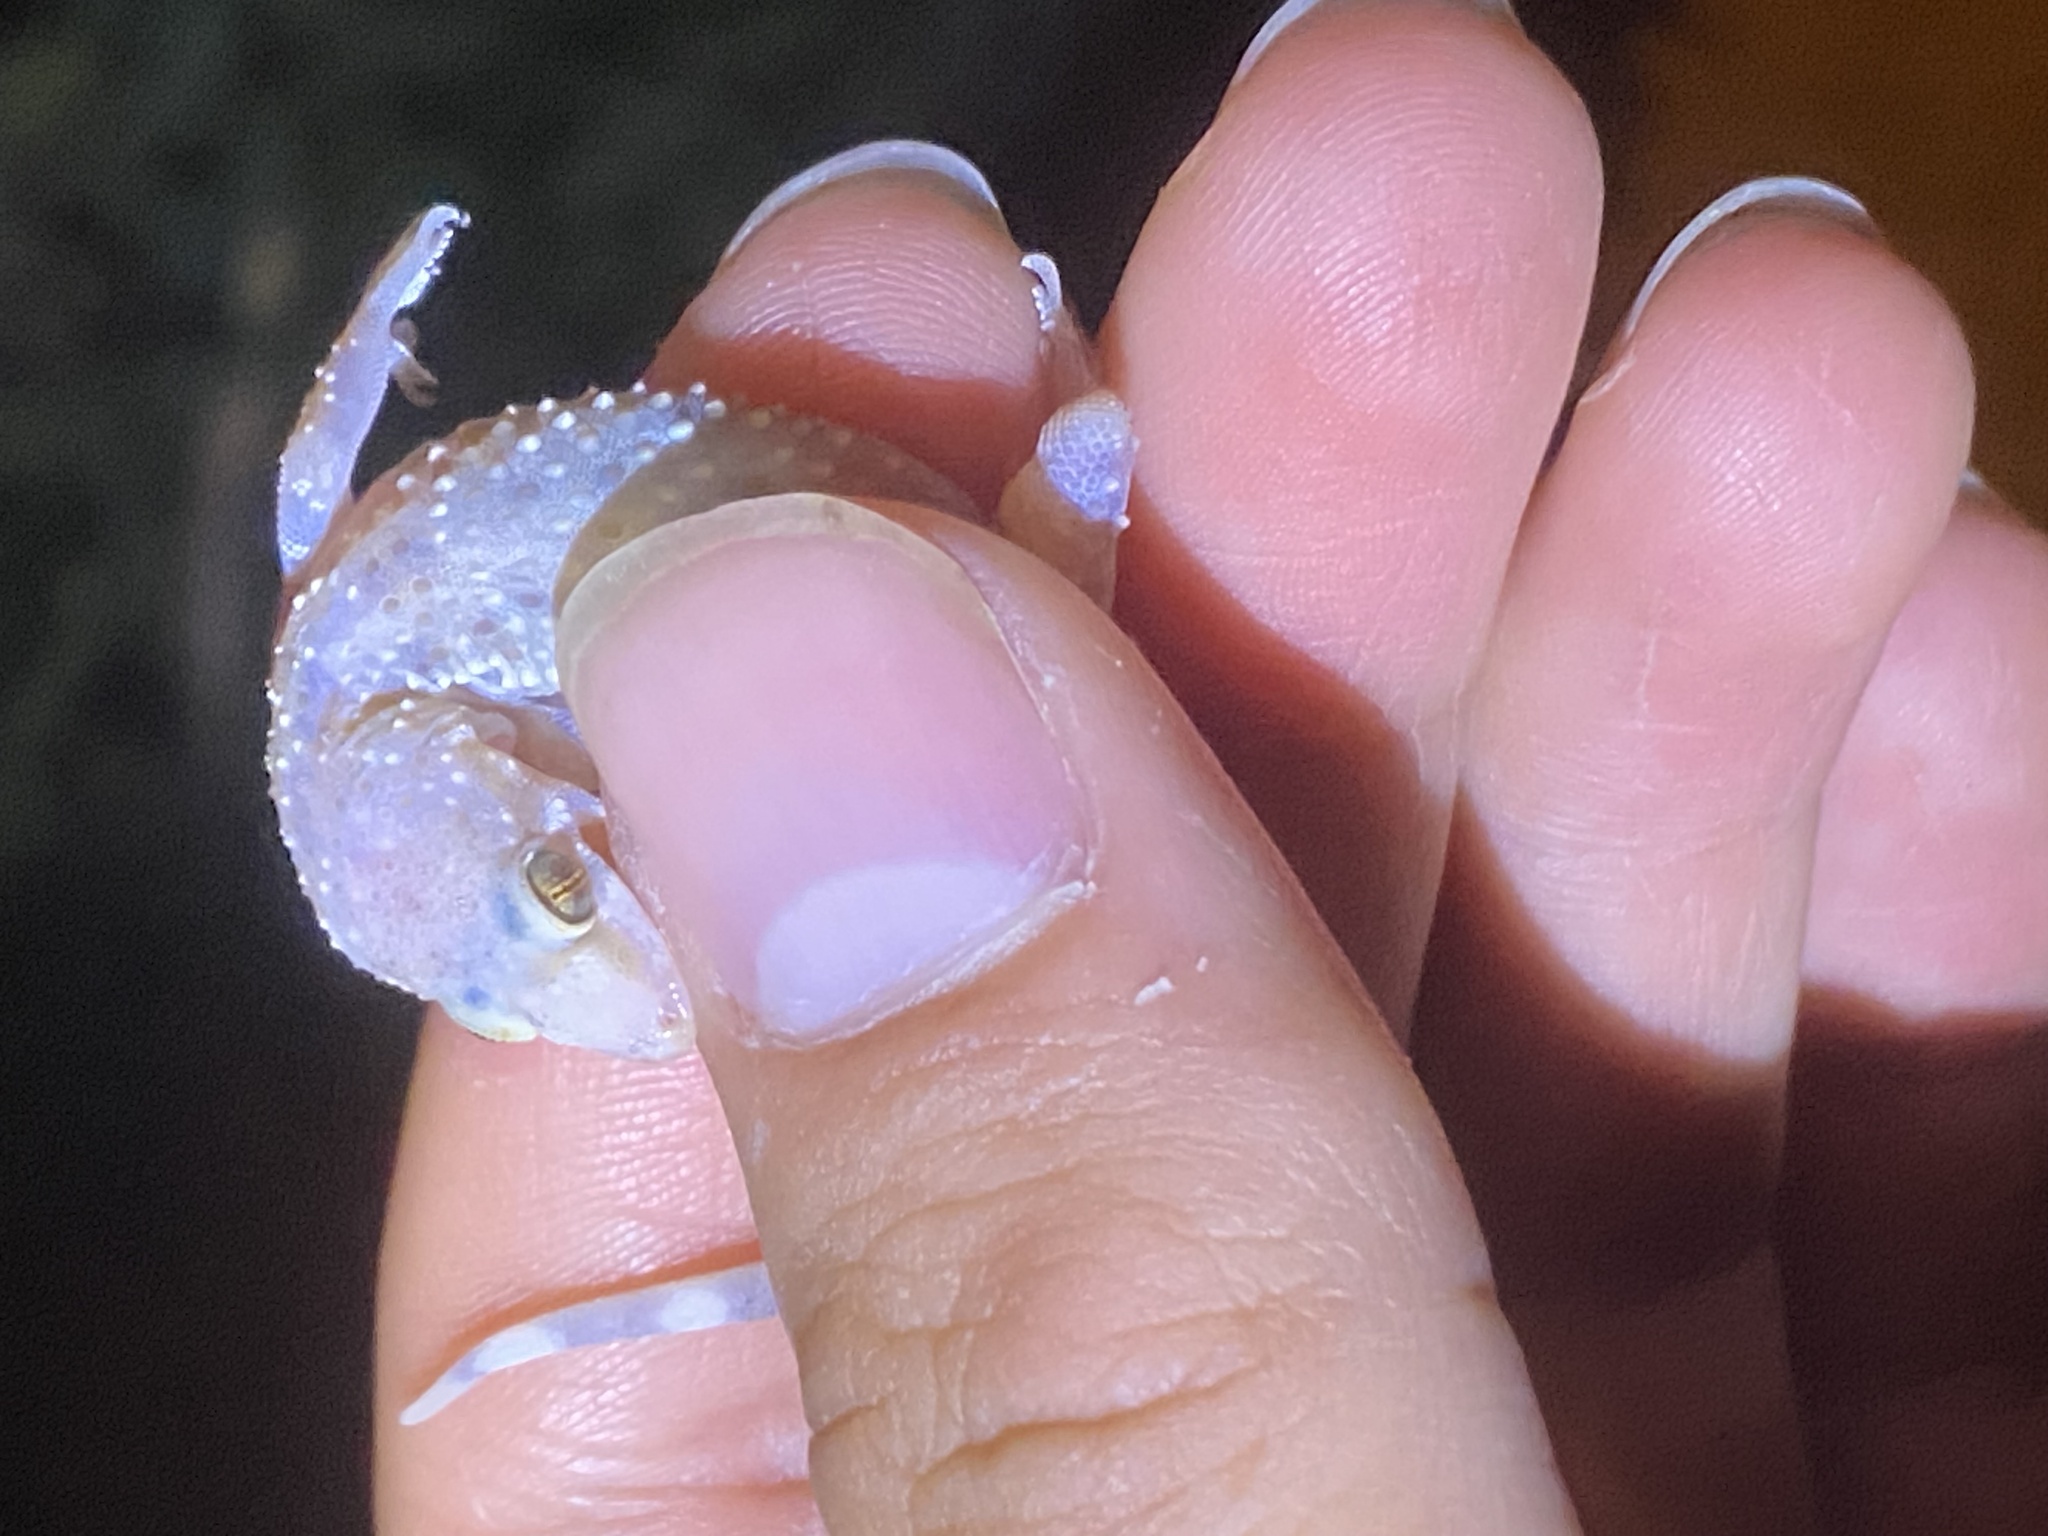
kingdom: Animalia
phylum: Chordata
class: Squamata
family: Gekkonidae
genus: Hemidactylus
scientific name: Hemidactylus turcicus
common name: Turkish gecko
